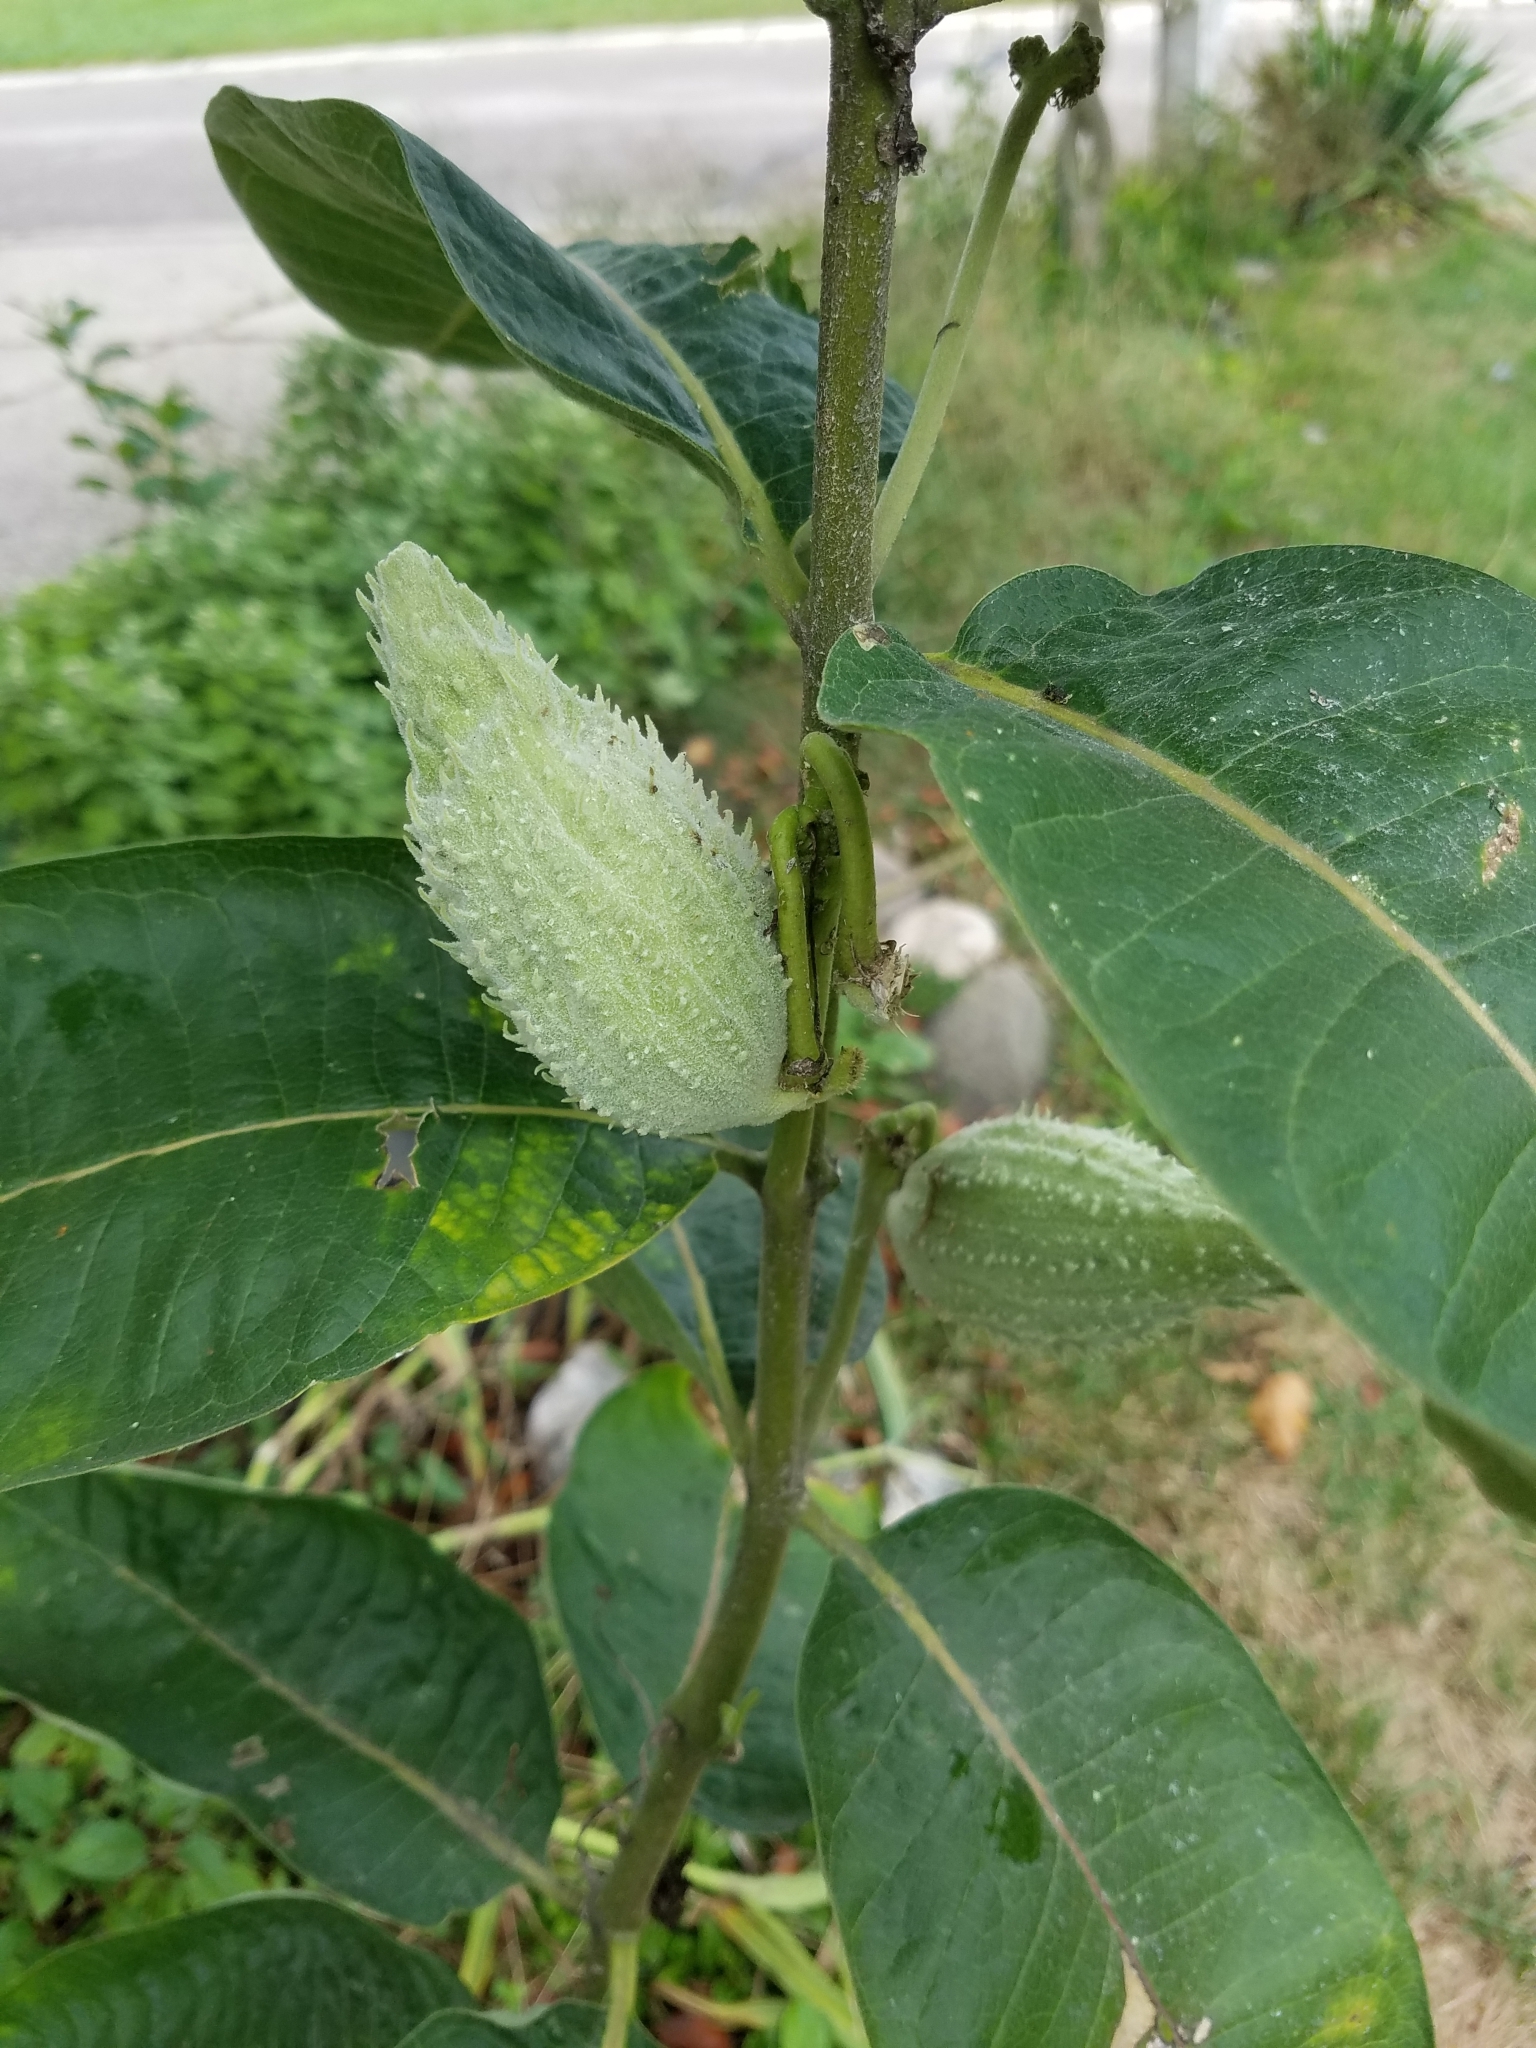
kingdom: Plantae
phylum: Tracheophyta
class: Magnoliopsida
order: Gentianales
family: Apocynaceae
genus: Asclepias
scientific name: Asclepias syriaca
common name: Common milkweed
